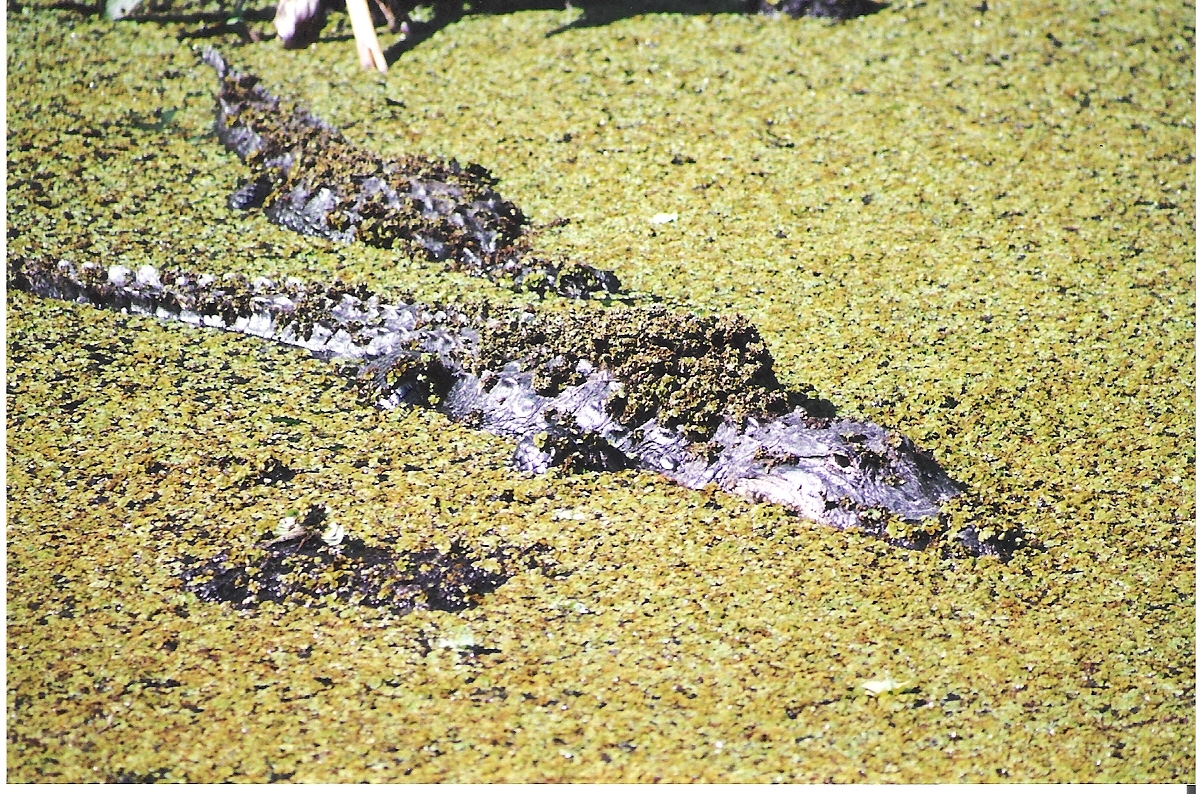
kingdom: Animalia
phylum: Chordata
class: Crocodylia
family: Alligatoridae
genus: Alligator
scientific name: Alligator mississippiensis
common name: American alligator
